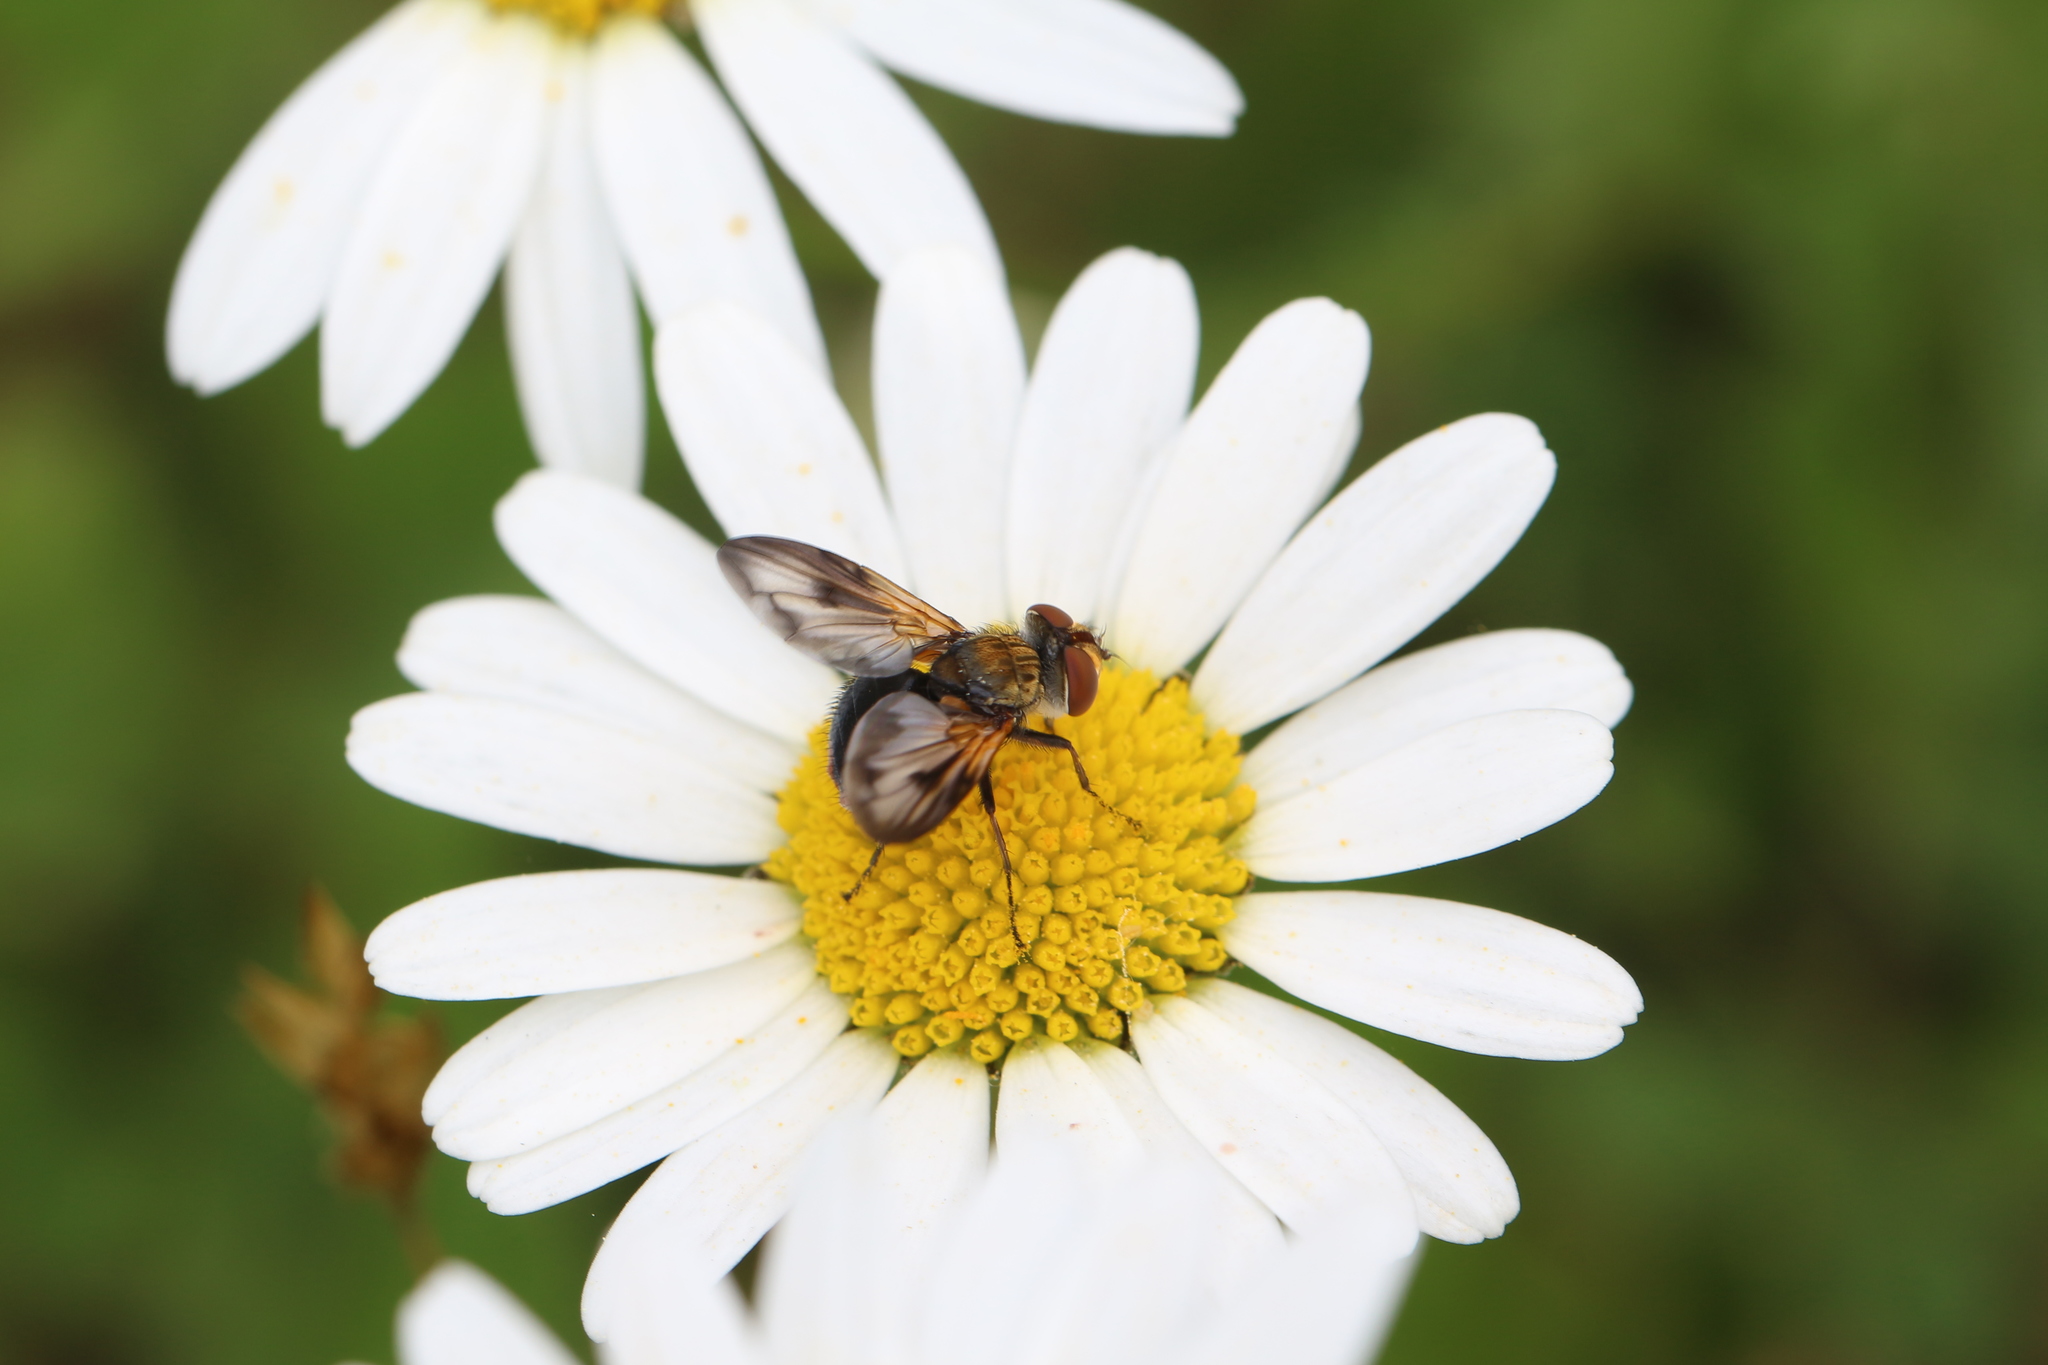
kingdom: Animalia
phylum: Arthropoda
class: Insecta
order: Diptera
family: Tachinidae
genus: Ectophasia
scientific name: Ectophasia crassipennis
